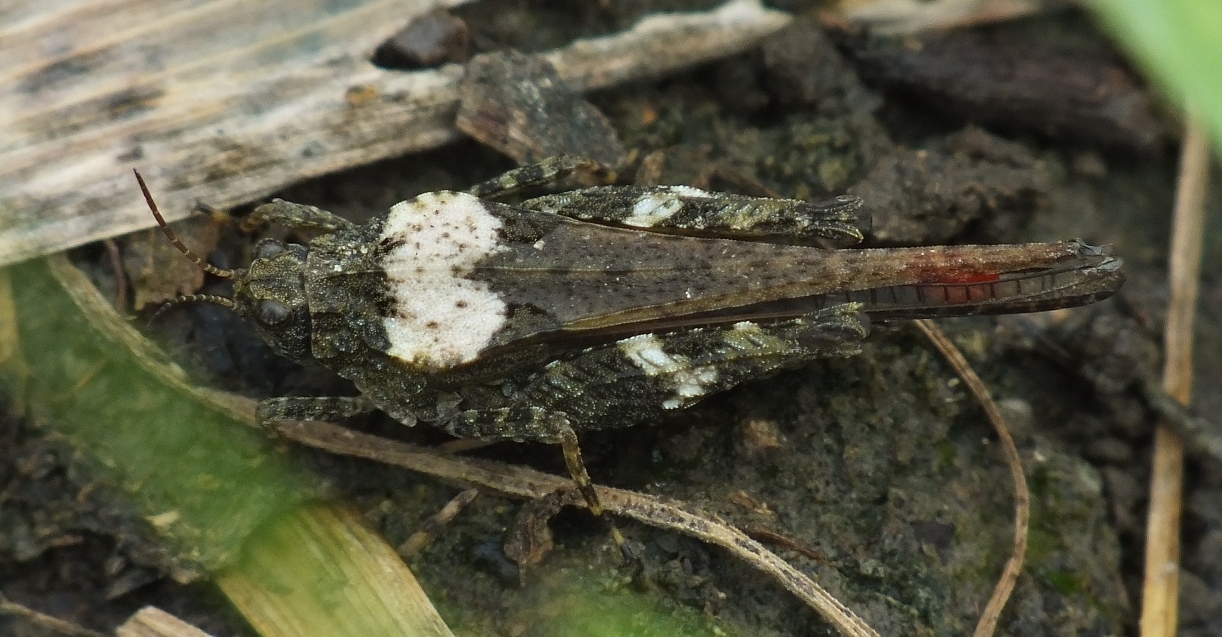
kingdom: Animalia
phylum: Arthropoda
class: Insecta
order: Orthoptera
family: Tetrigidae
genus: Tetrix
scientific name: Tetrix subulata
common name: Slender ground-hopper
